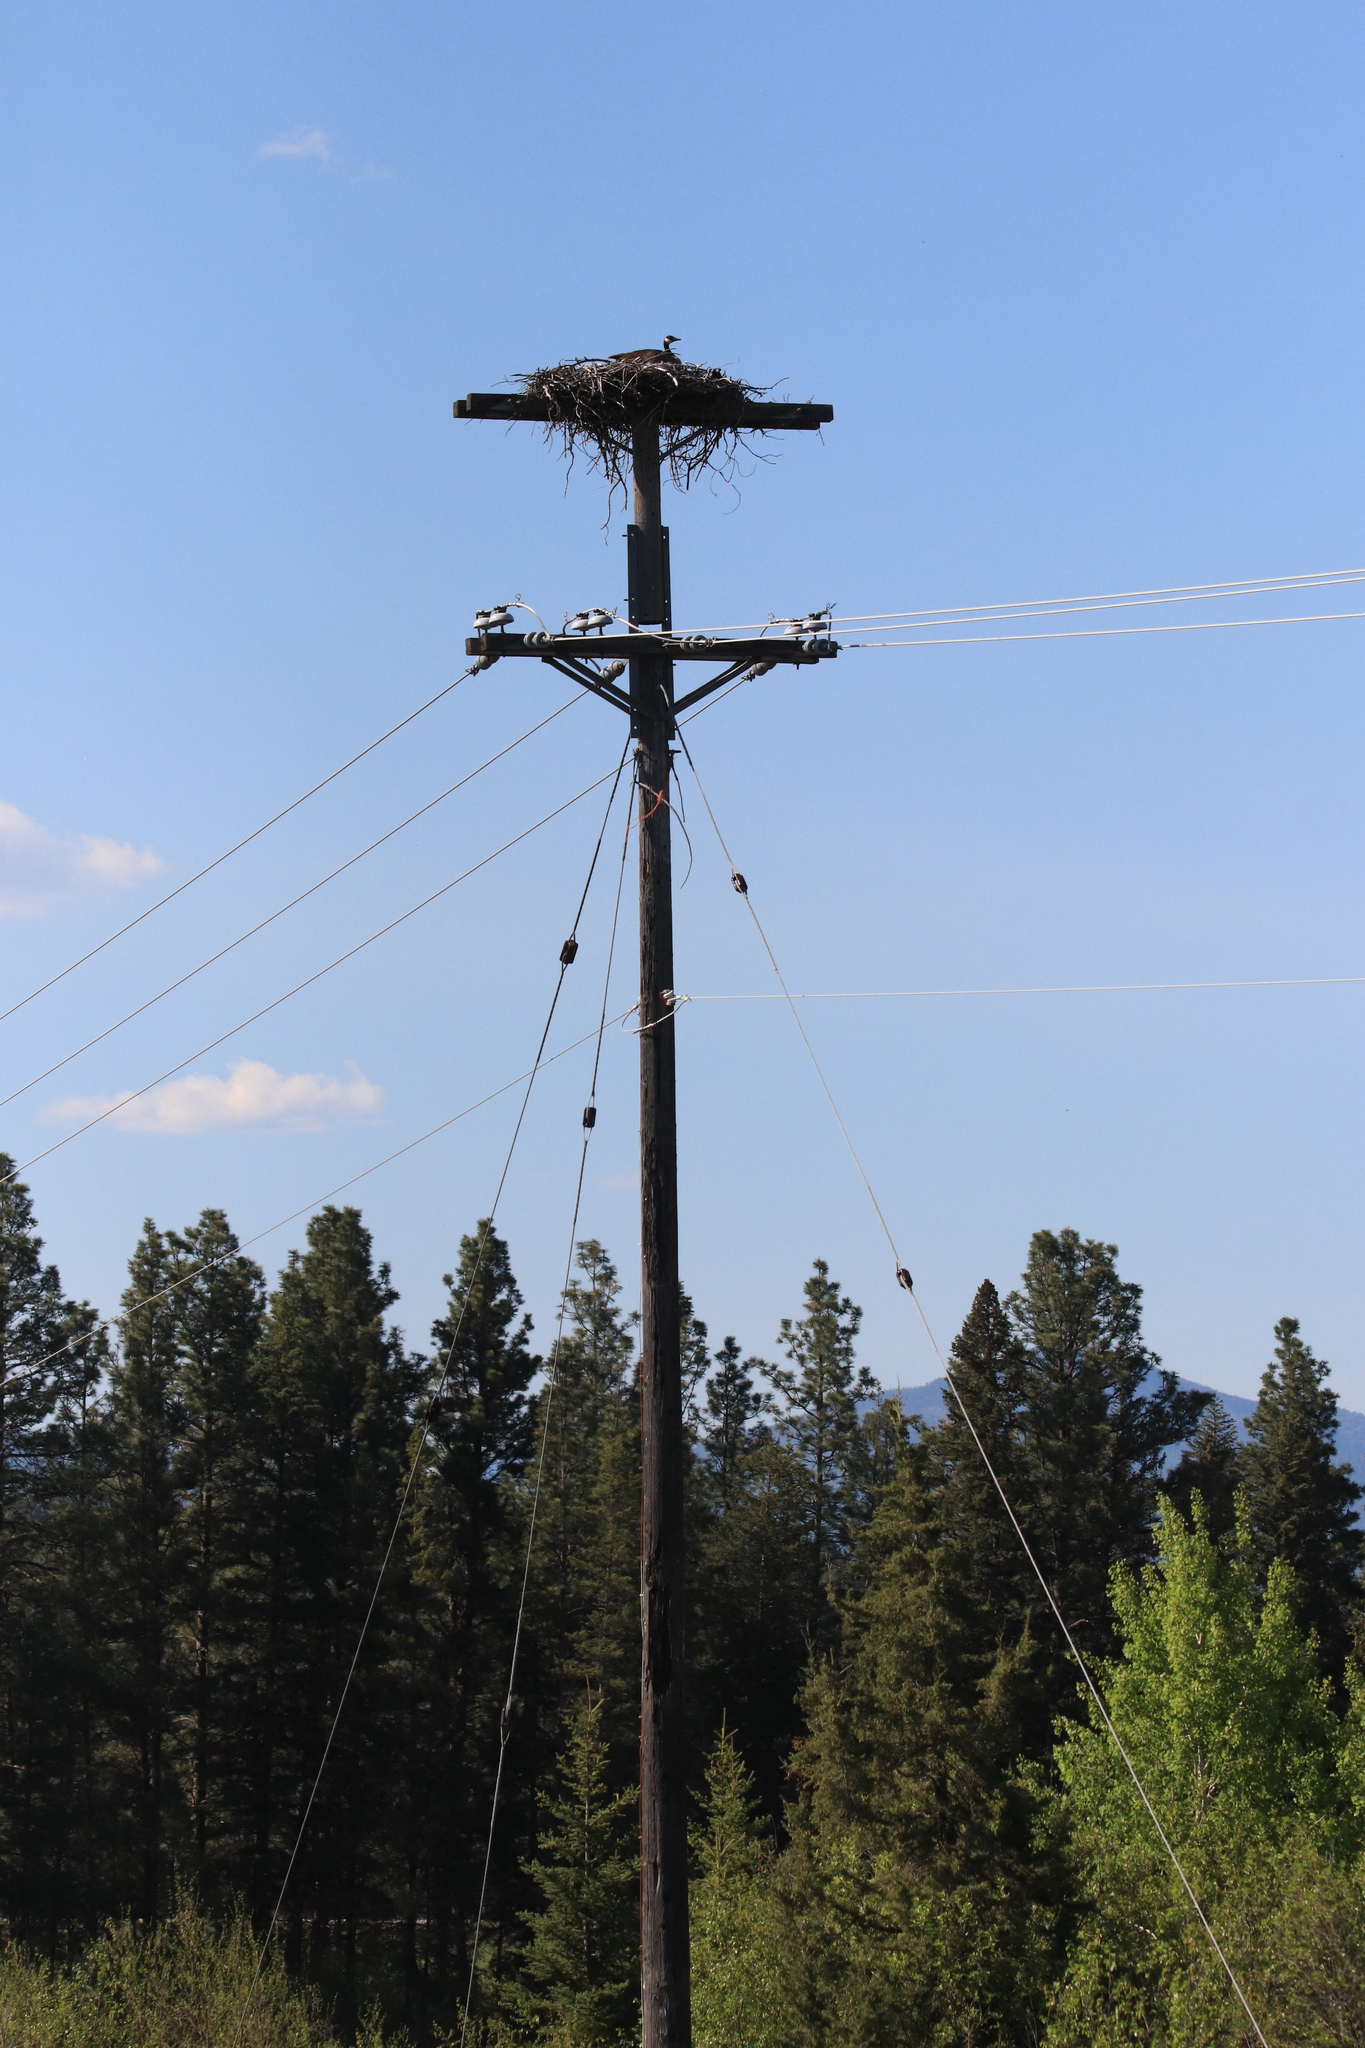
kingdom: Animalia
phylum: Chordata
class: Aves
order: Anseriformes
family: Anatidae
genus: Branta
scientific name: Branta canadensis
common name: Canada goose
